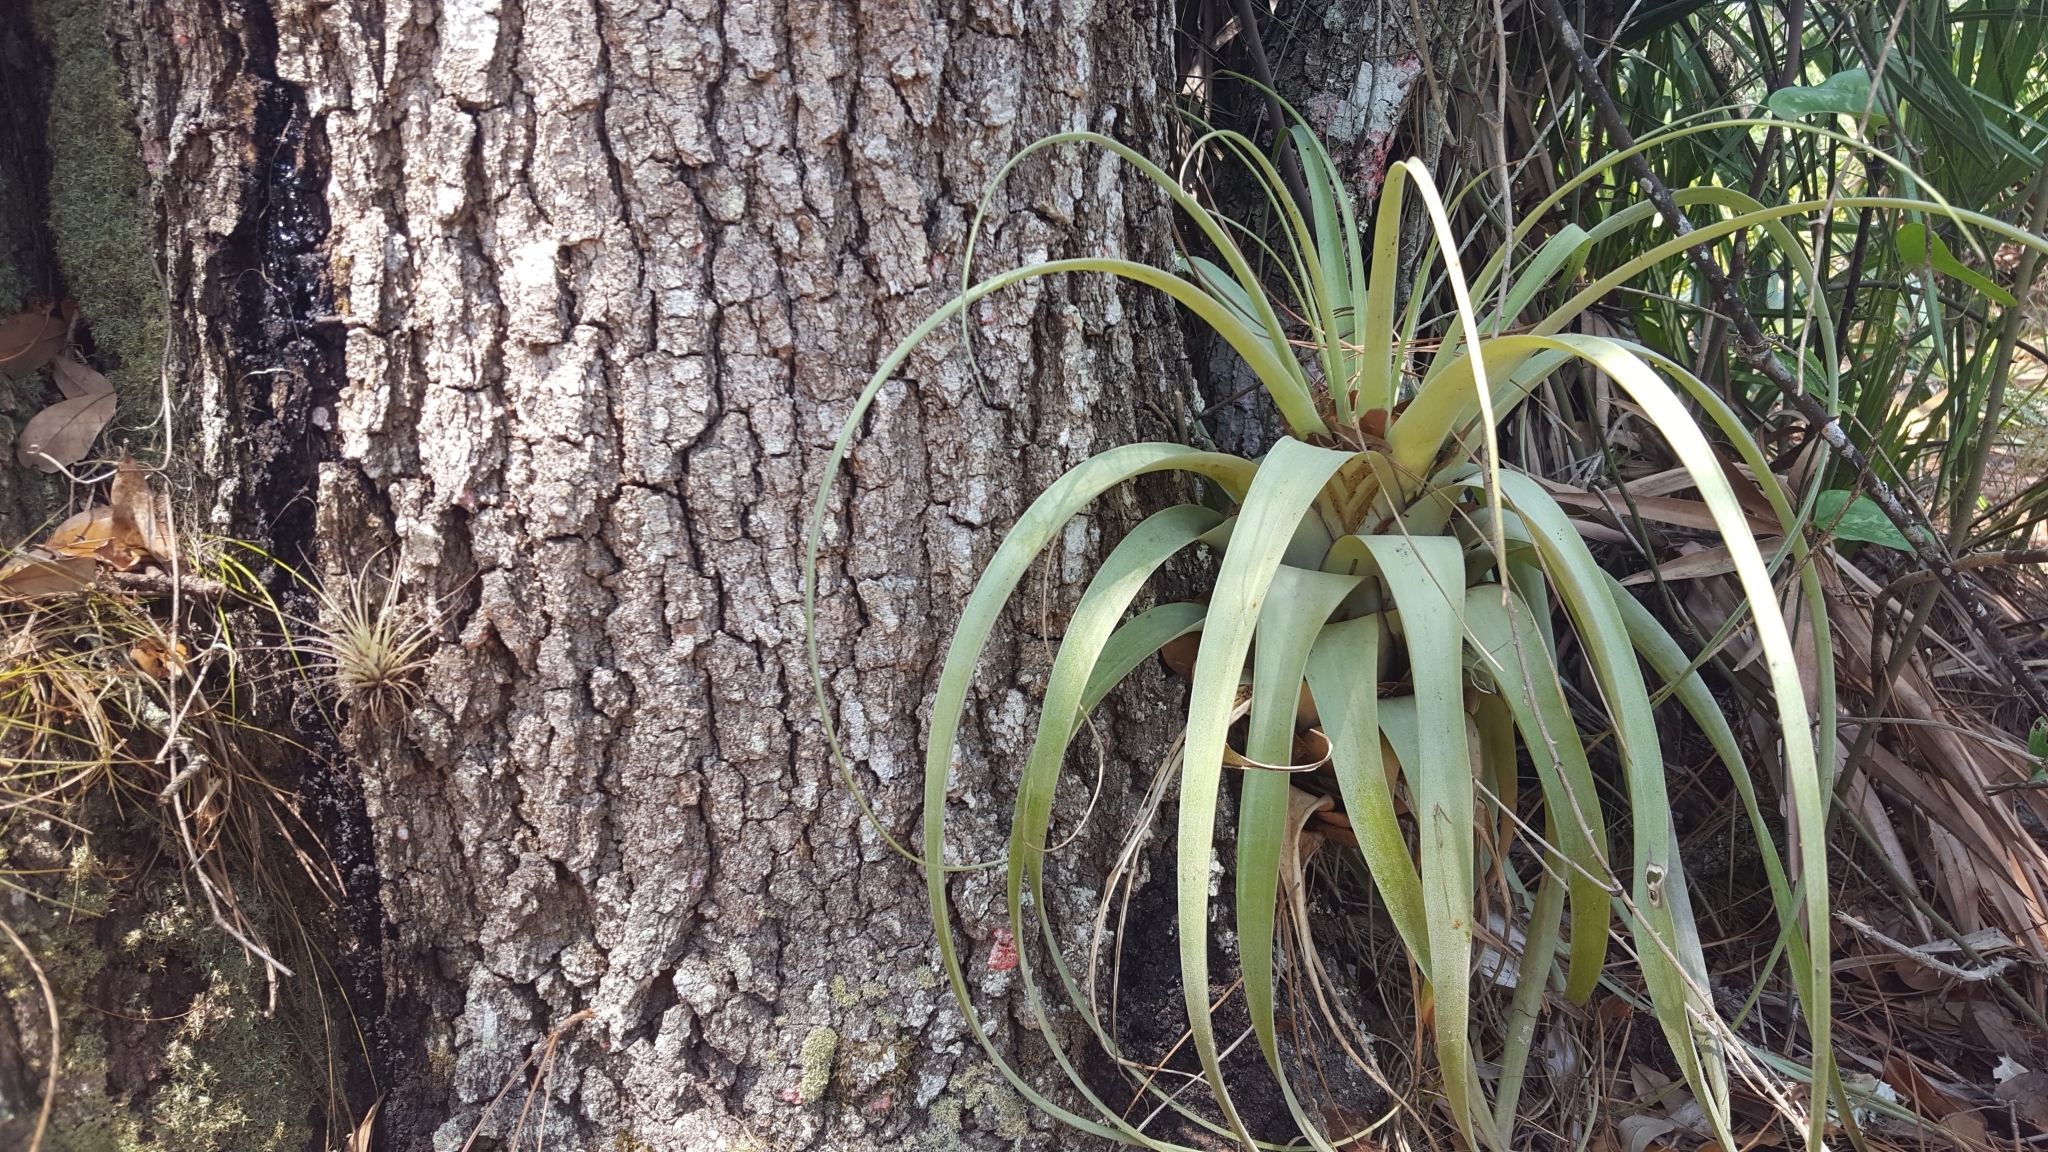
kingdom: Plantae
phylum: Tracheophyta
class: Liliopsida
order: Poales
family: Bromeliaceae
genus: Tillandsia
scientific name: Tillandsia utriculata
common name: Wild pine
